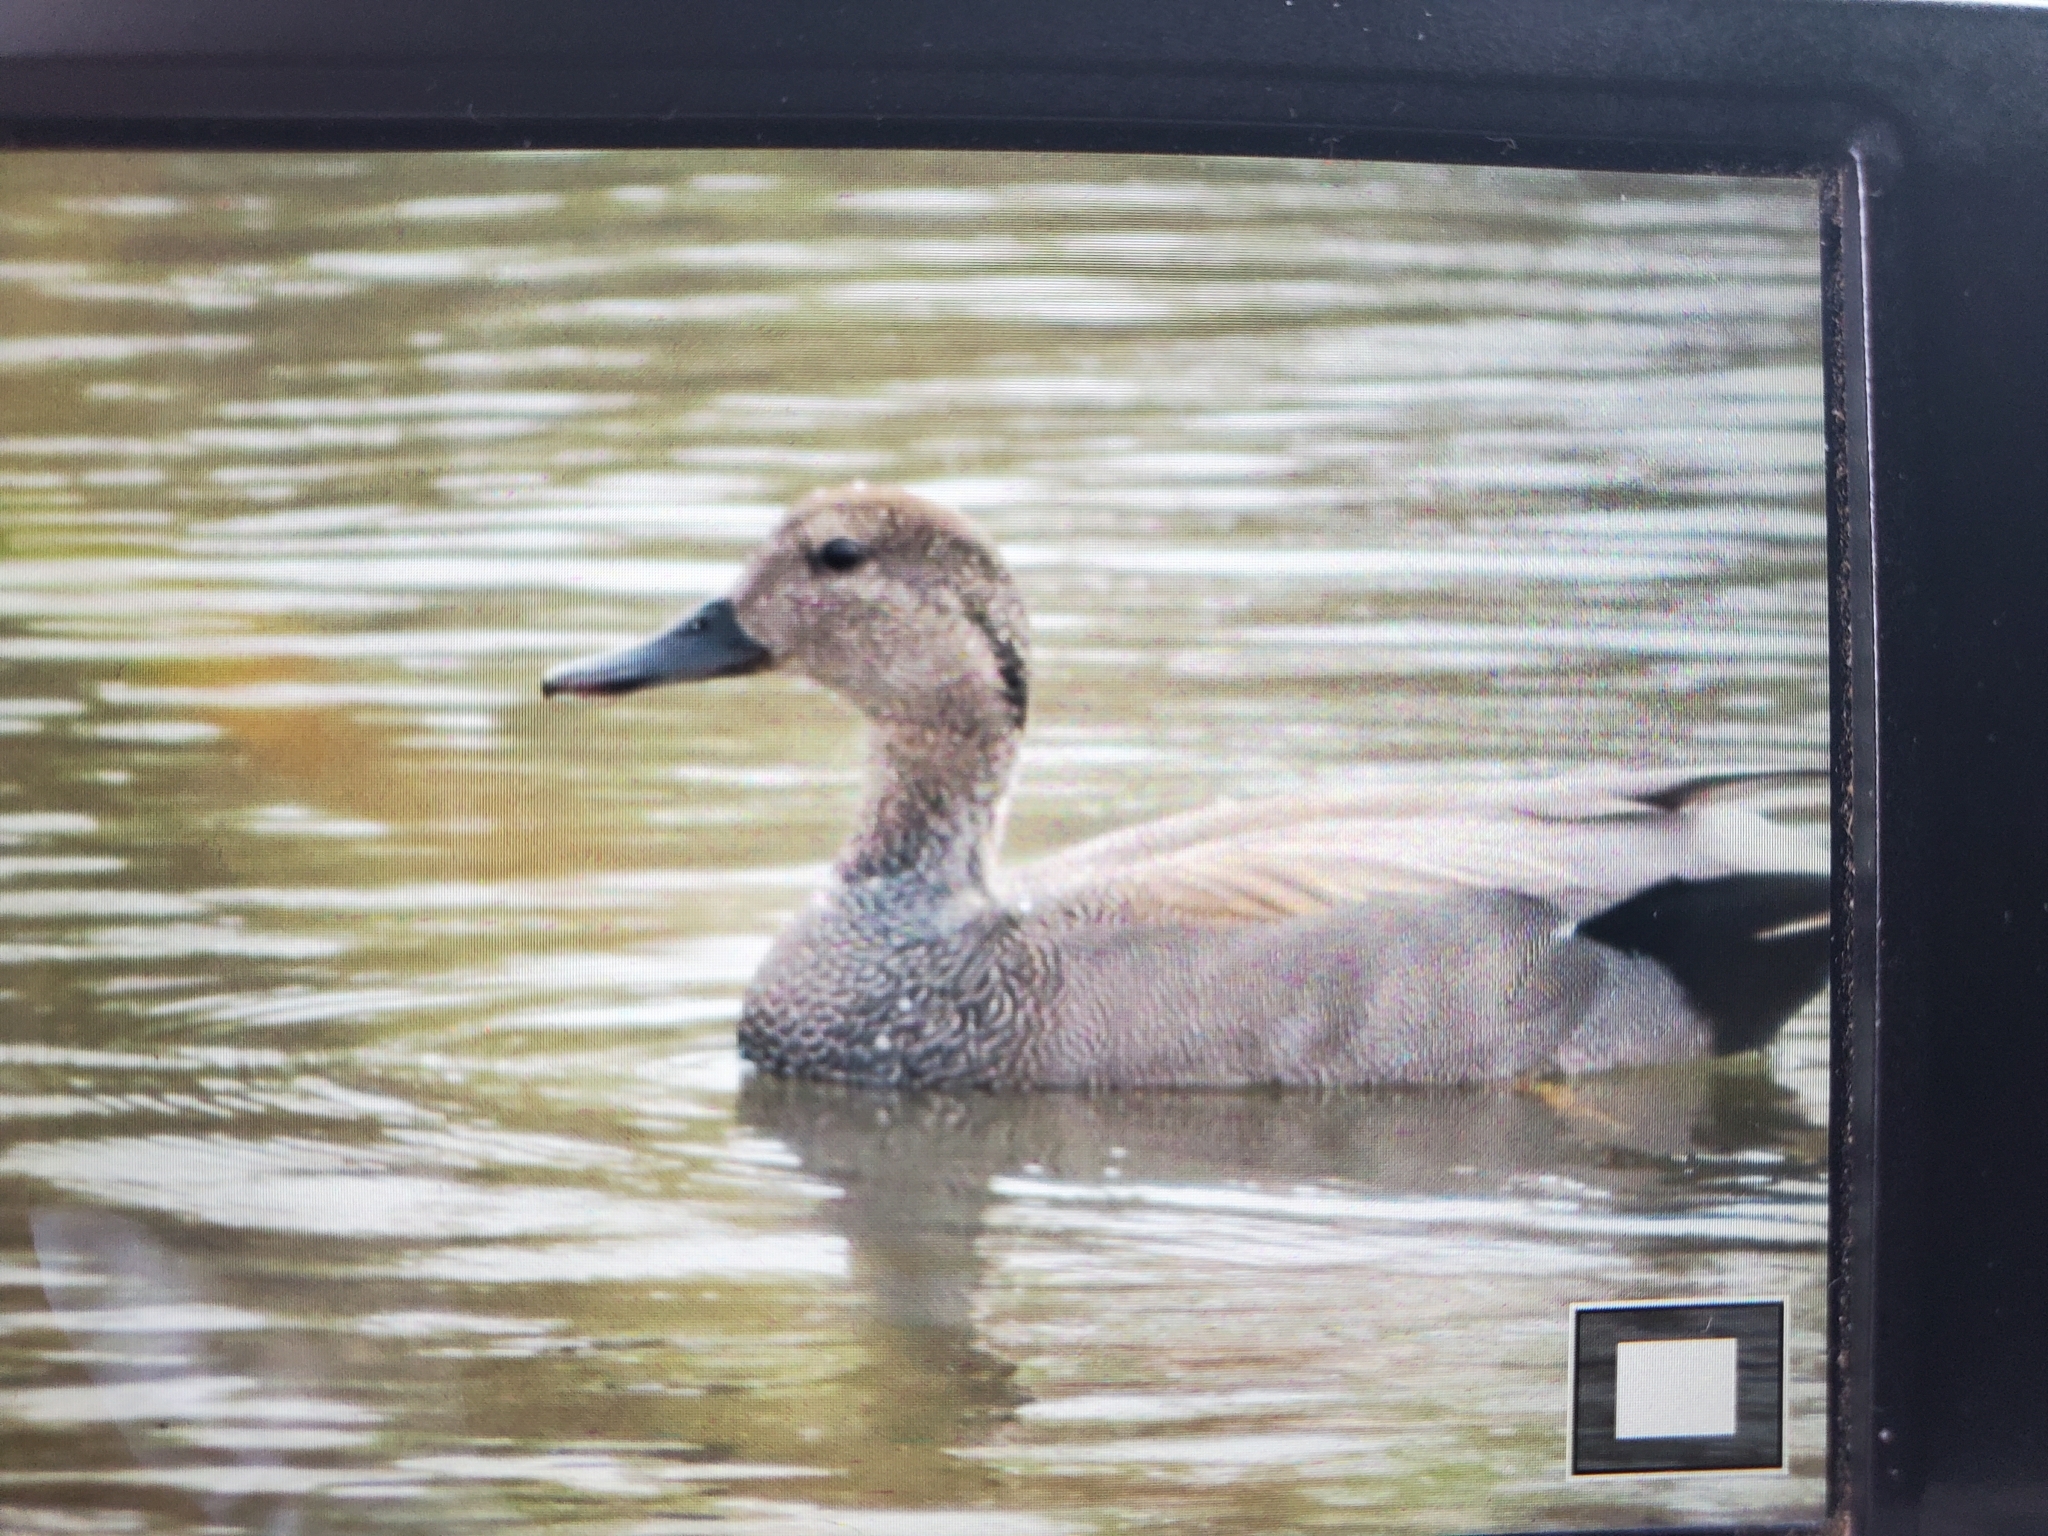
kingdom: Animalia
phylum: Chordata
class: Aves
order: Anseriformes
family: Anatidae
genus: Mareca
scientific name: Mareca strepera
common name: Gadwall
